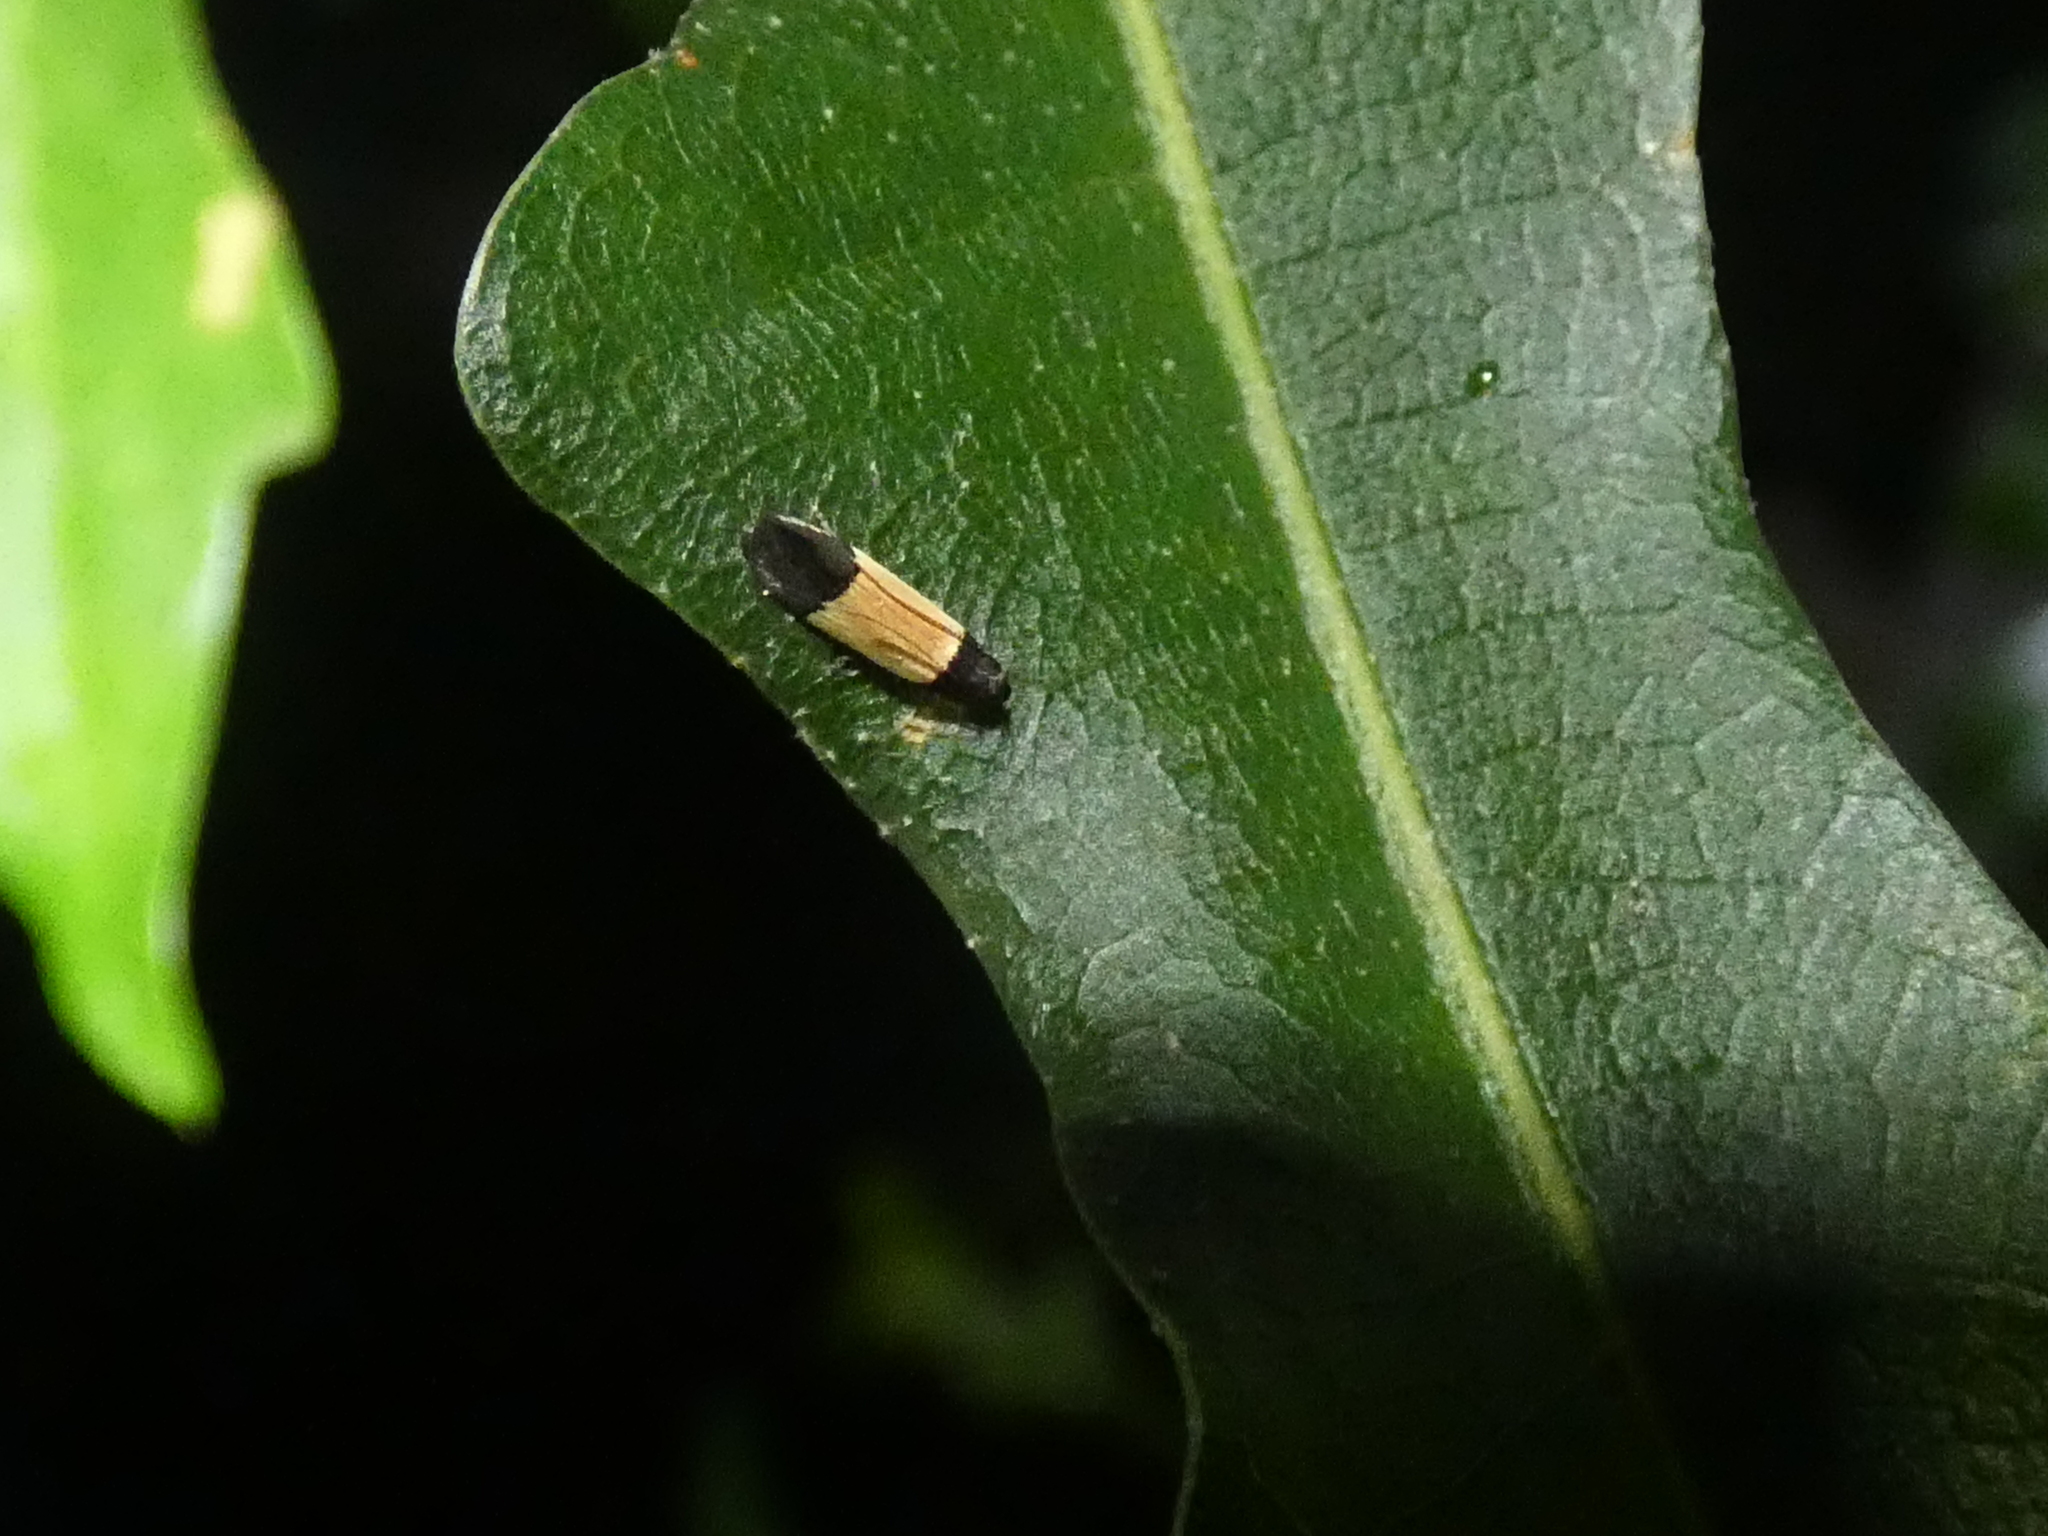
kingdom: Animalia
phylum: Arthropoda
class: Insecta
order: Lepidoptera
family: Gelechiidae
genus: Anacampsis
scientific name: Anacampsis coverdalella
